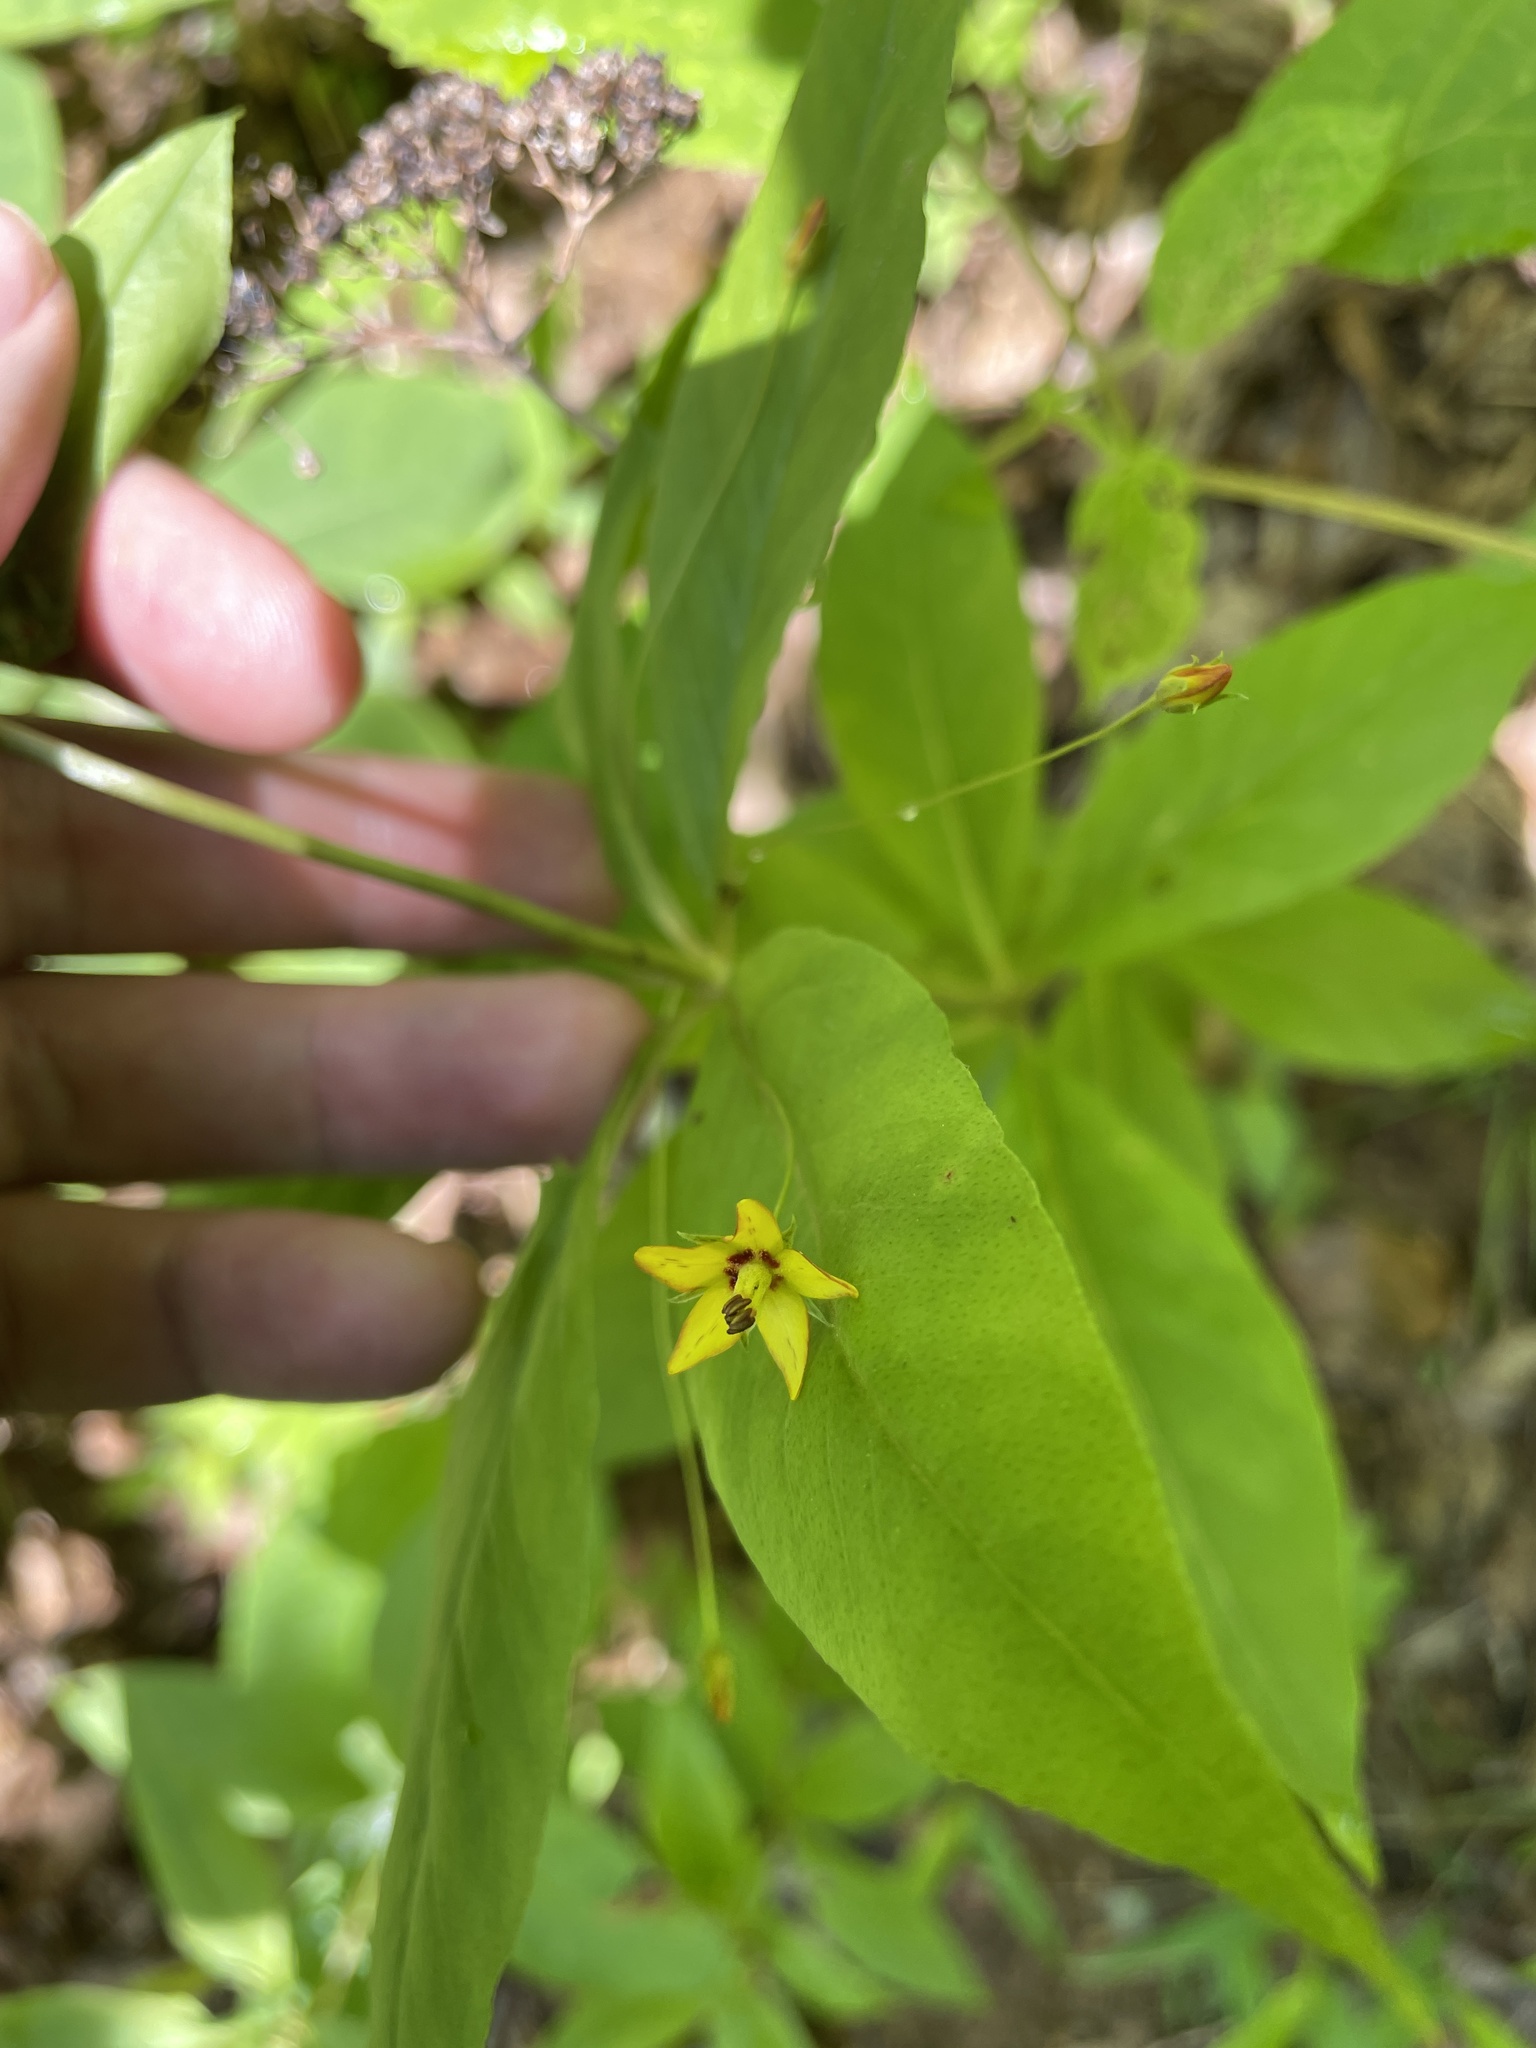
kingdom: Plantae
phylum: Tracheophyta
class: Magnoliopsida
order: Ericales
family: Primulaceae
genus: Lysimachia
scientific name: Lysimachia quadrifolia
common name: Whorled loosestrife
